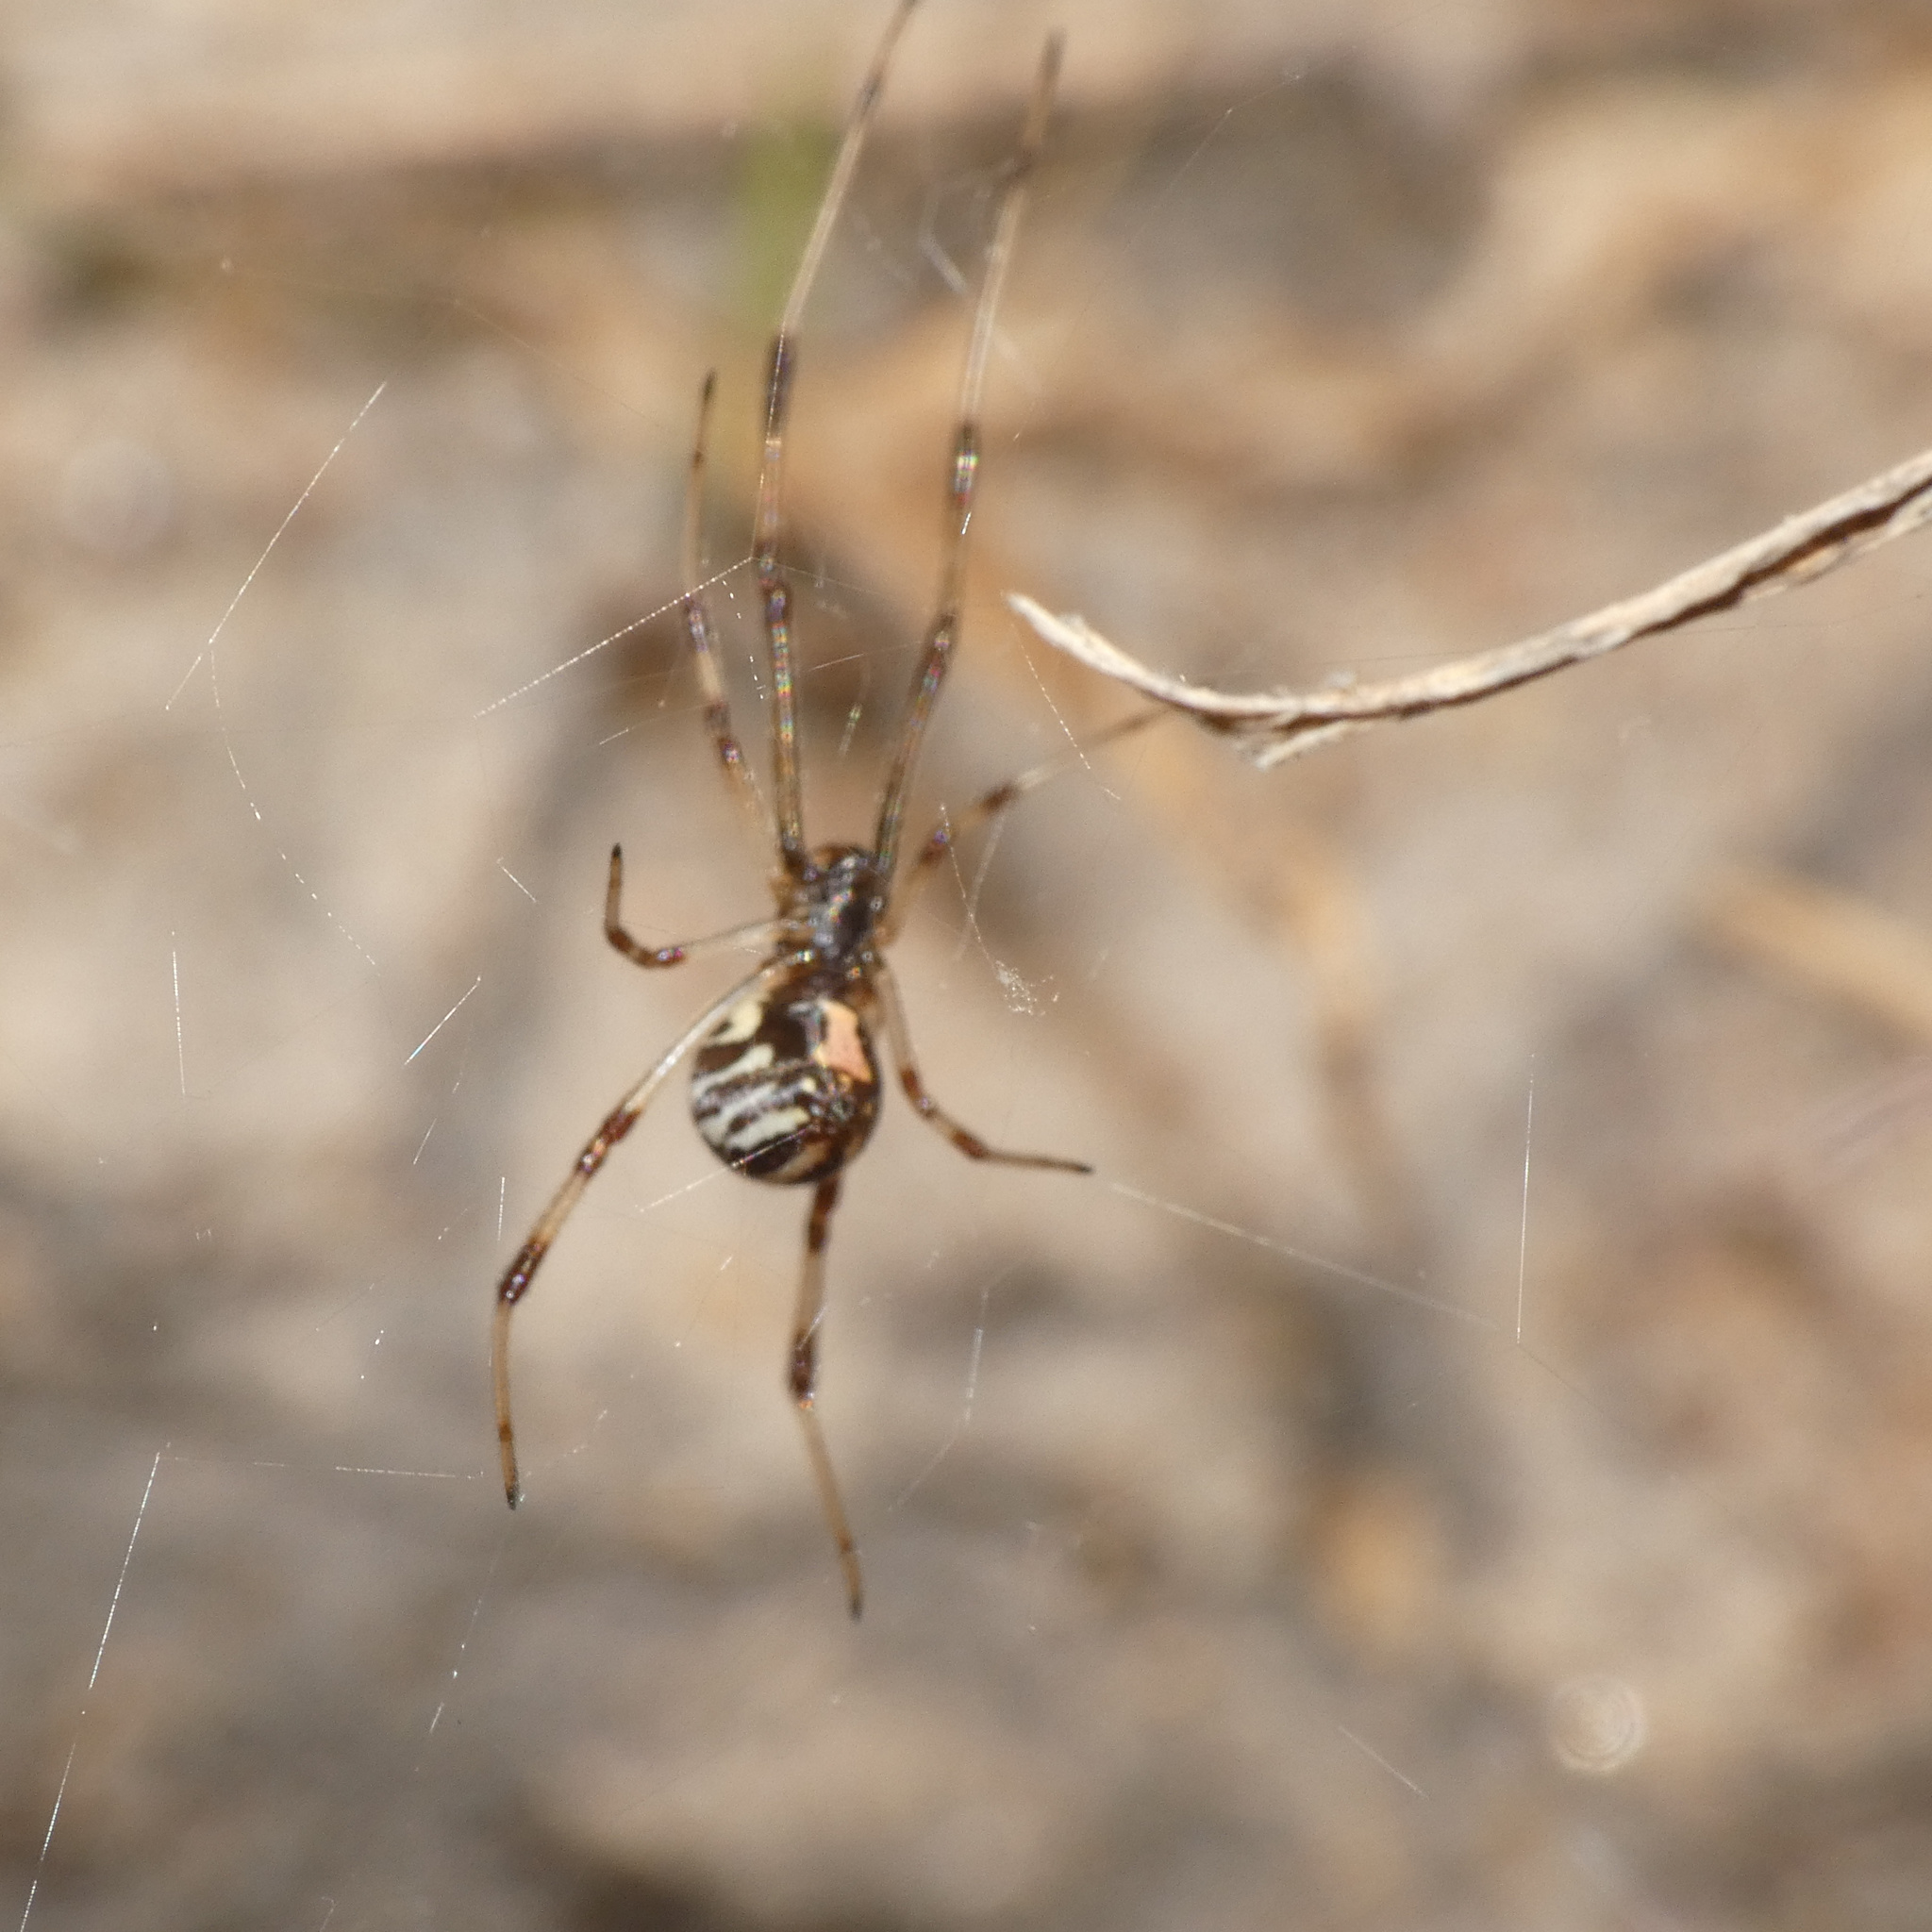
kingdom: Animalia
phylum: Arthropoda
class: Arachnida
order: Araneae
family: Theridiidae
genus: Latrodectus
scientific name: Latrodectus geometricus
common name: Brown widow spider
